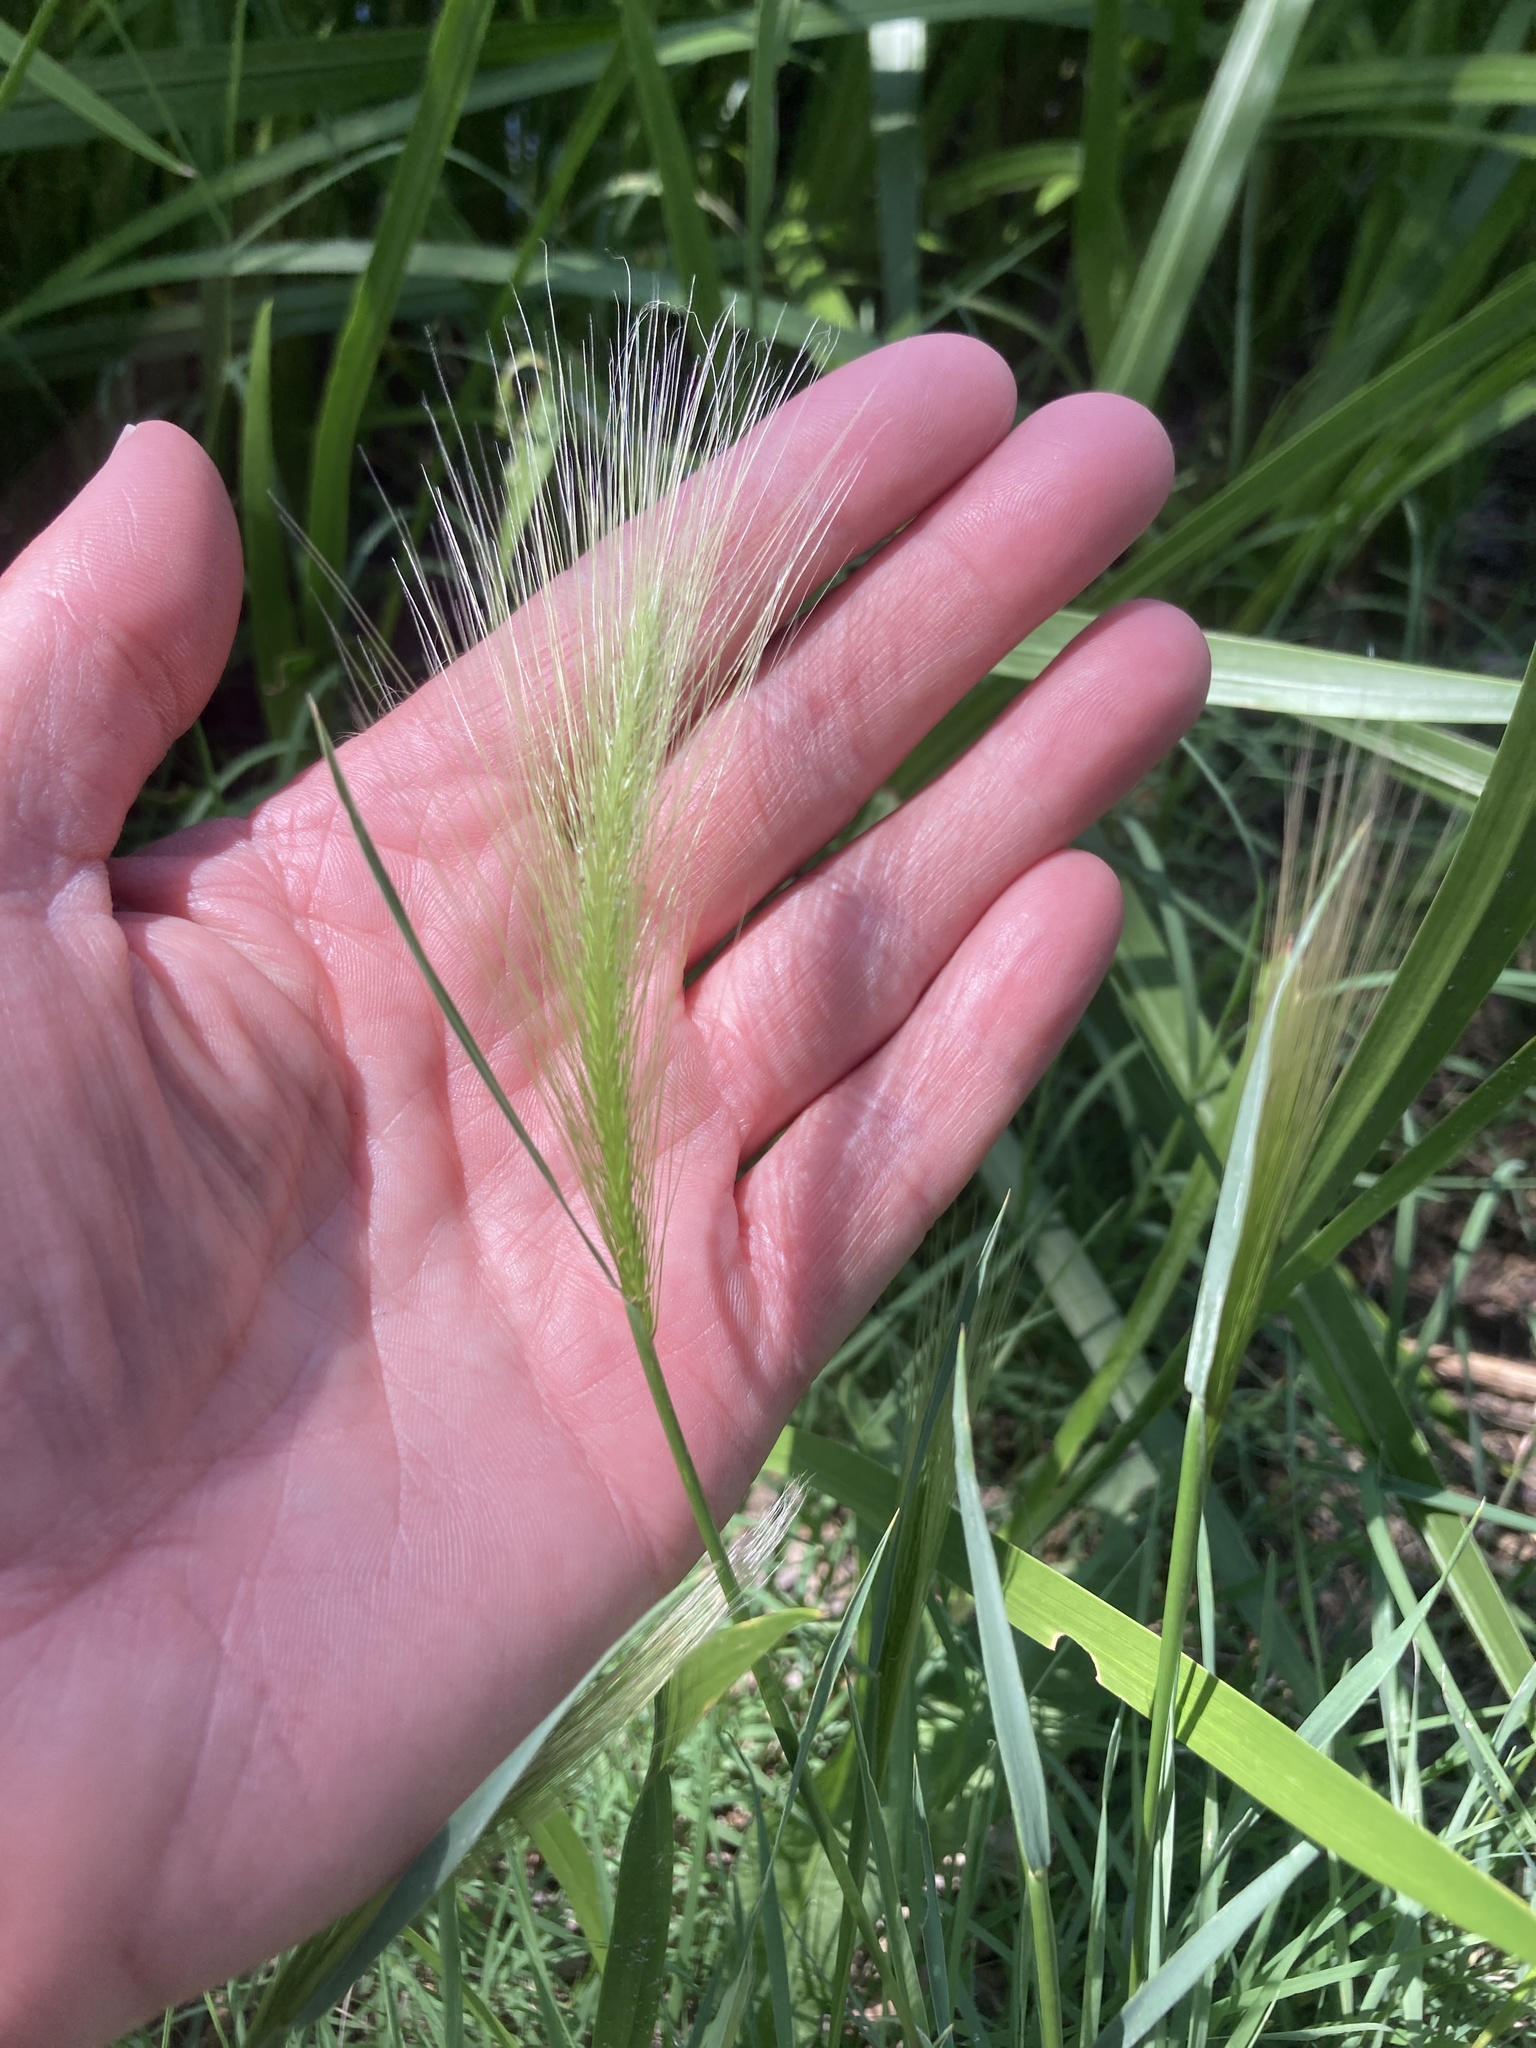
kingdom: Plantae
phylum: Tracheophyta
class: Liliopsida
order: Poales
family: Poaceae
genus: Hordeum
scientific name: Hordeum jubatum
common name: Foxtail barley
